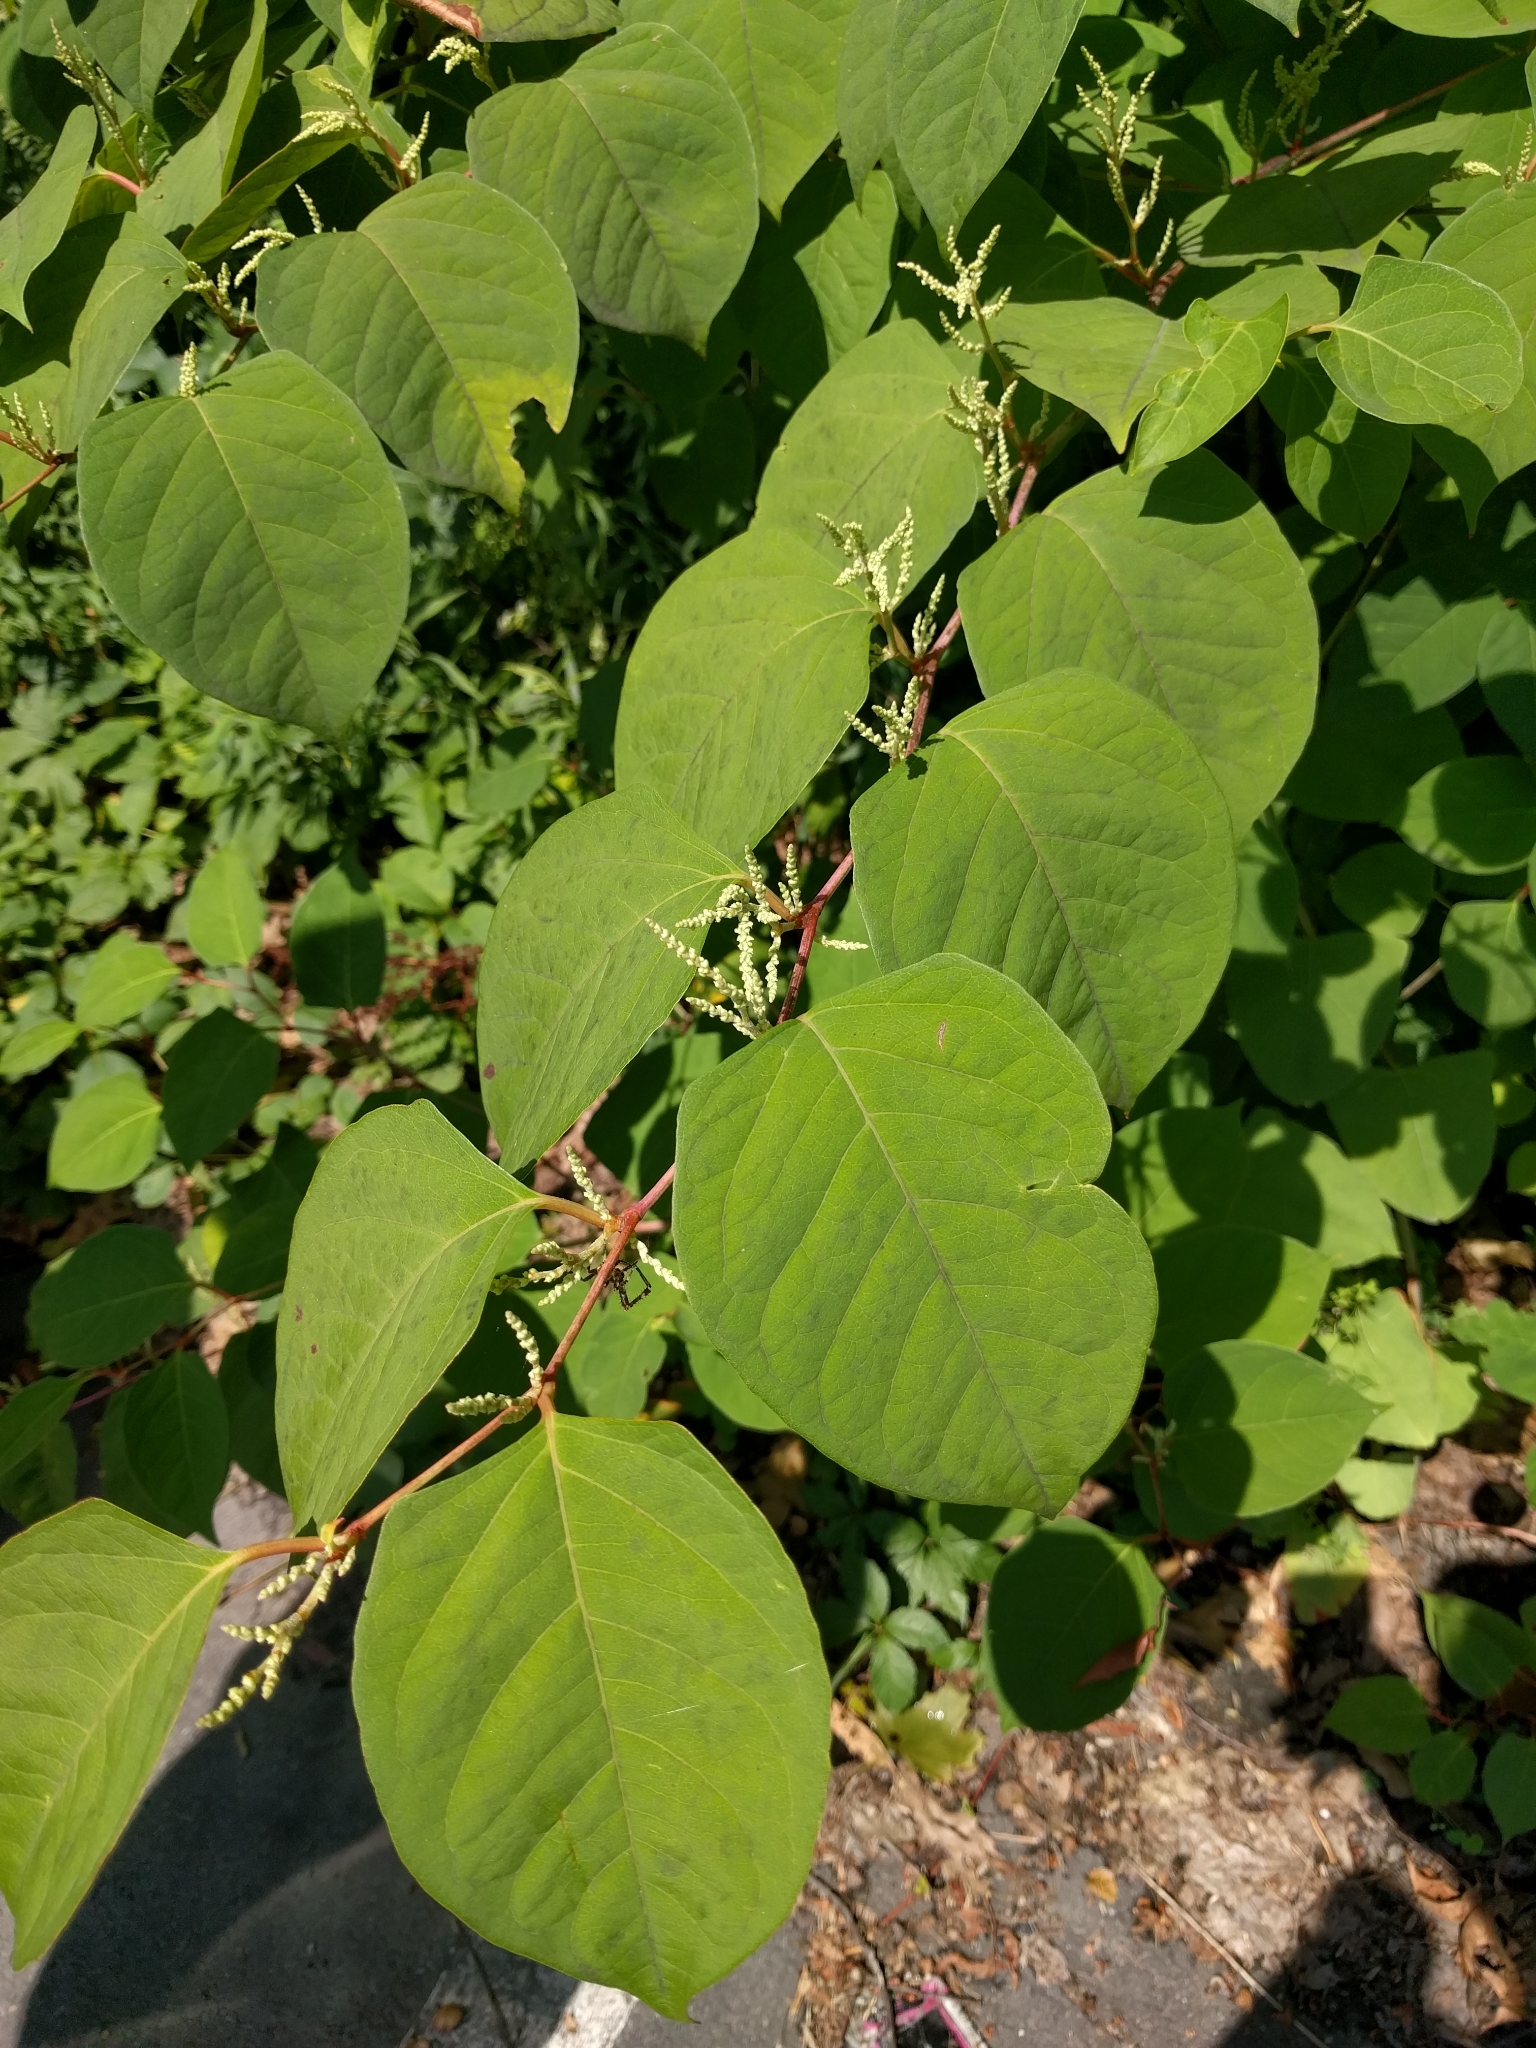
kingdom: Plantae
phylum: Tracheophyta
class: Magnoliopsida
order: Caryophyllales
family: Polygonaceae
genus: Reynoutria
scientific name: Reynoutria japonica
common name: Japanese knotweed
